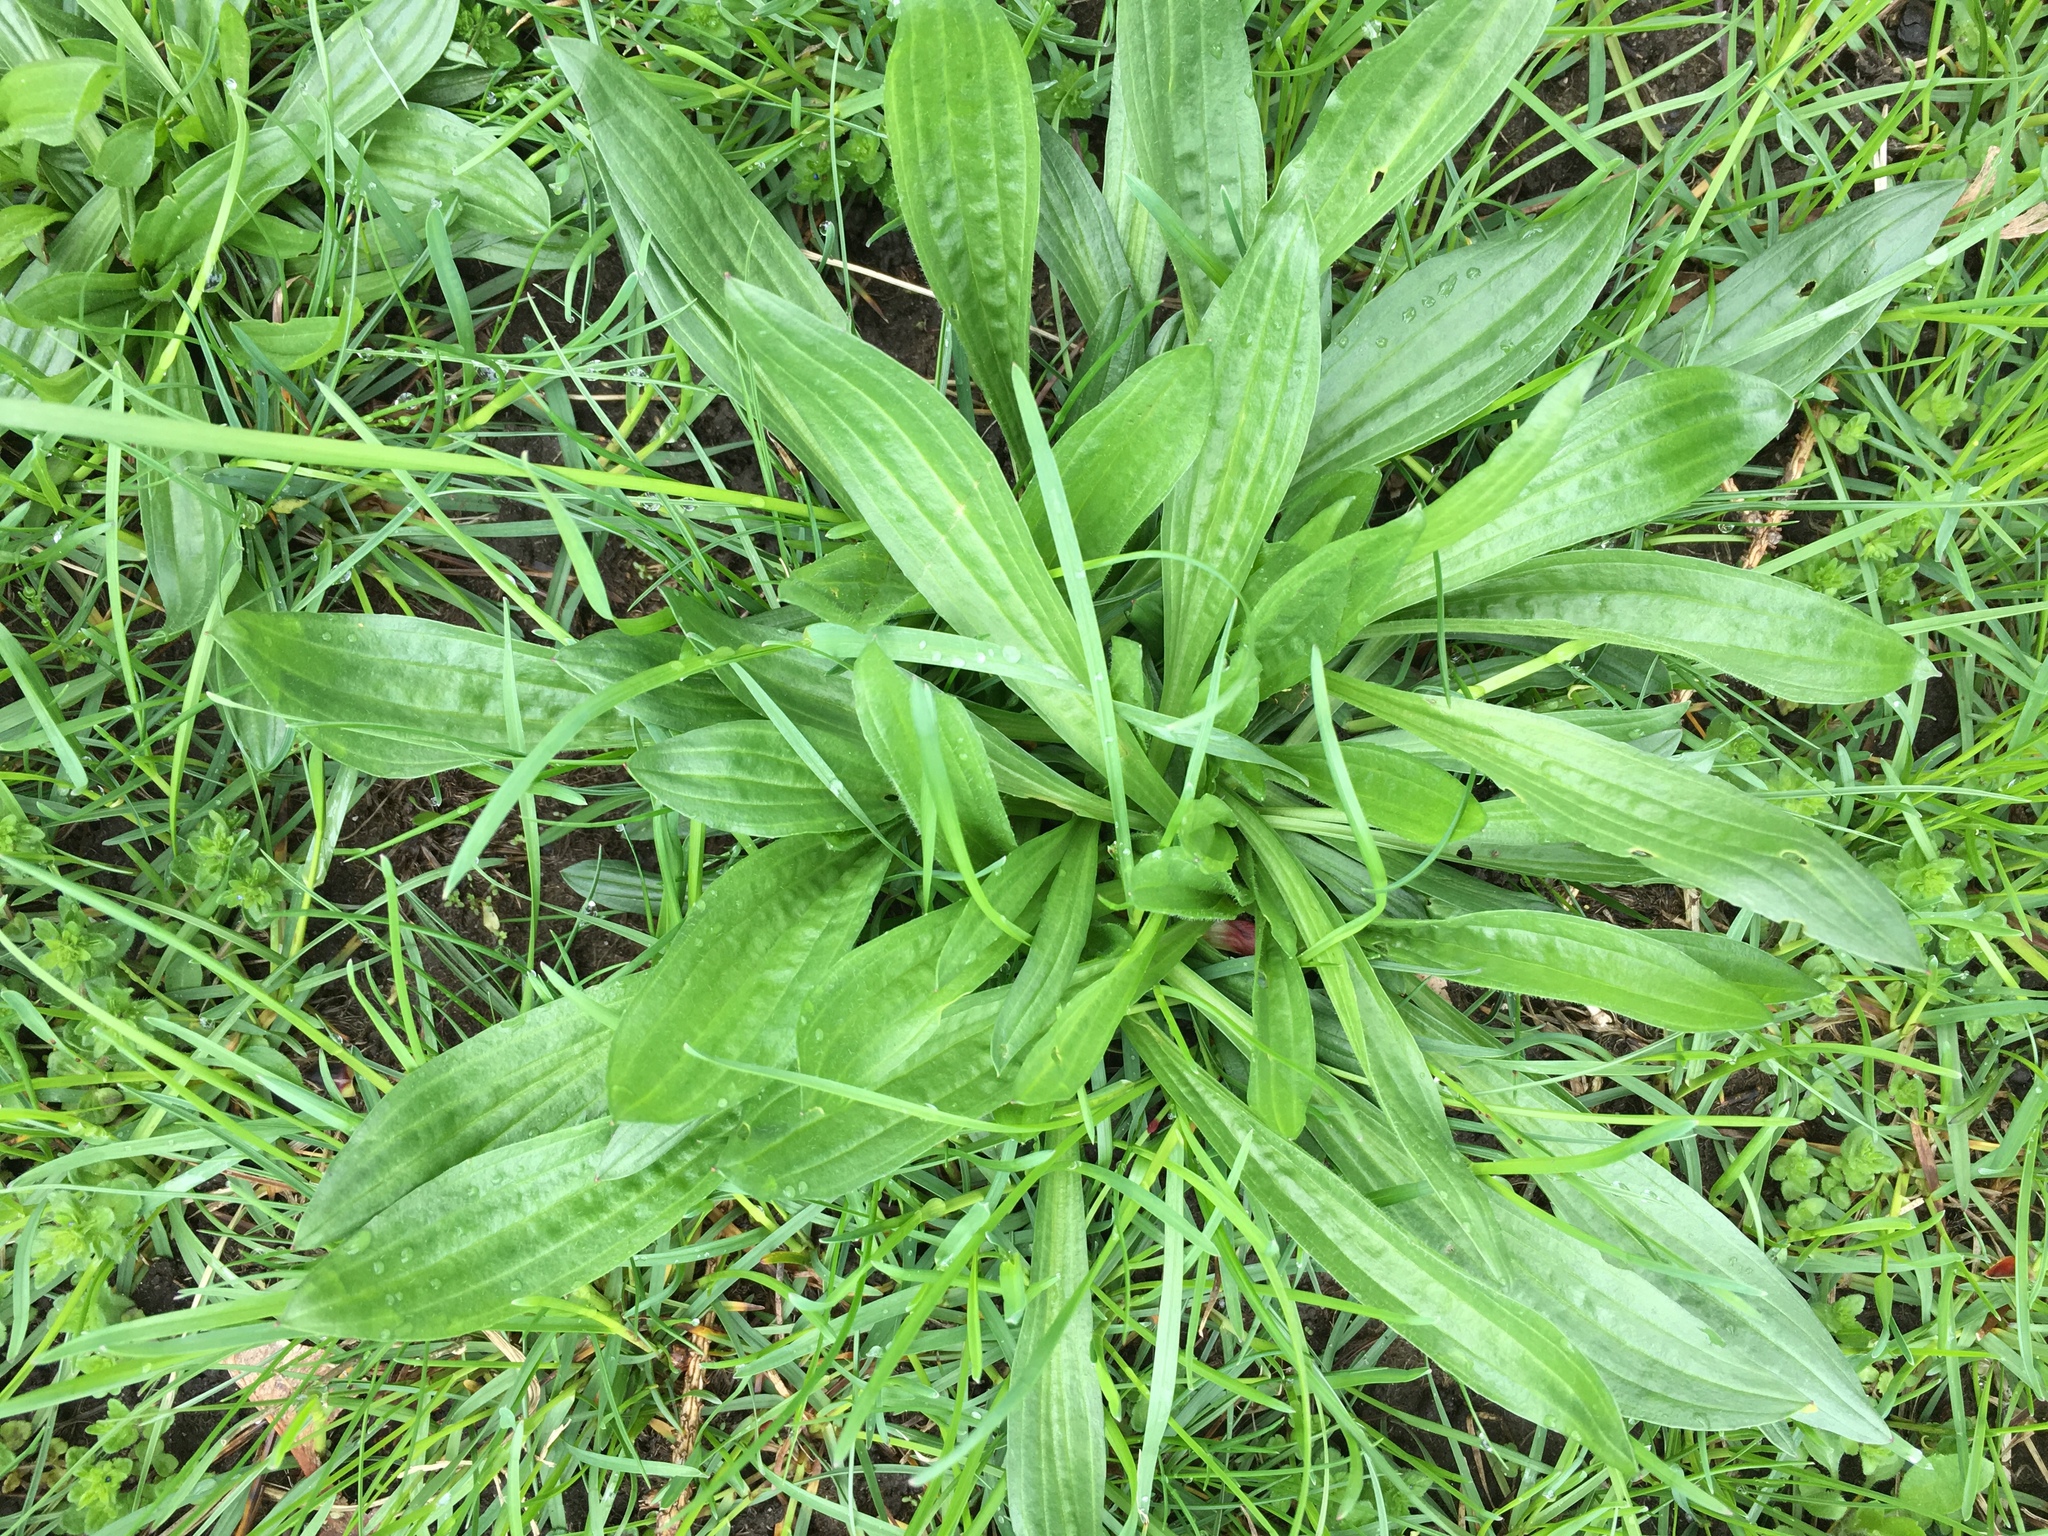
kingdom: Plantae
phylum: Tracheophyta
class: Magnoliopsida
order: Lamiales
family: Plantaginaceae
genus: Plantago
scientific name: Plantago lanceolata
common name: Ribwort plantain
